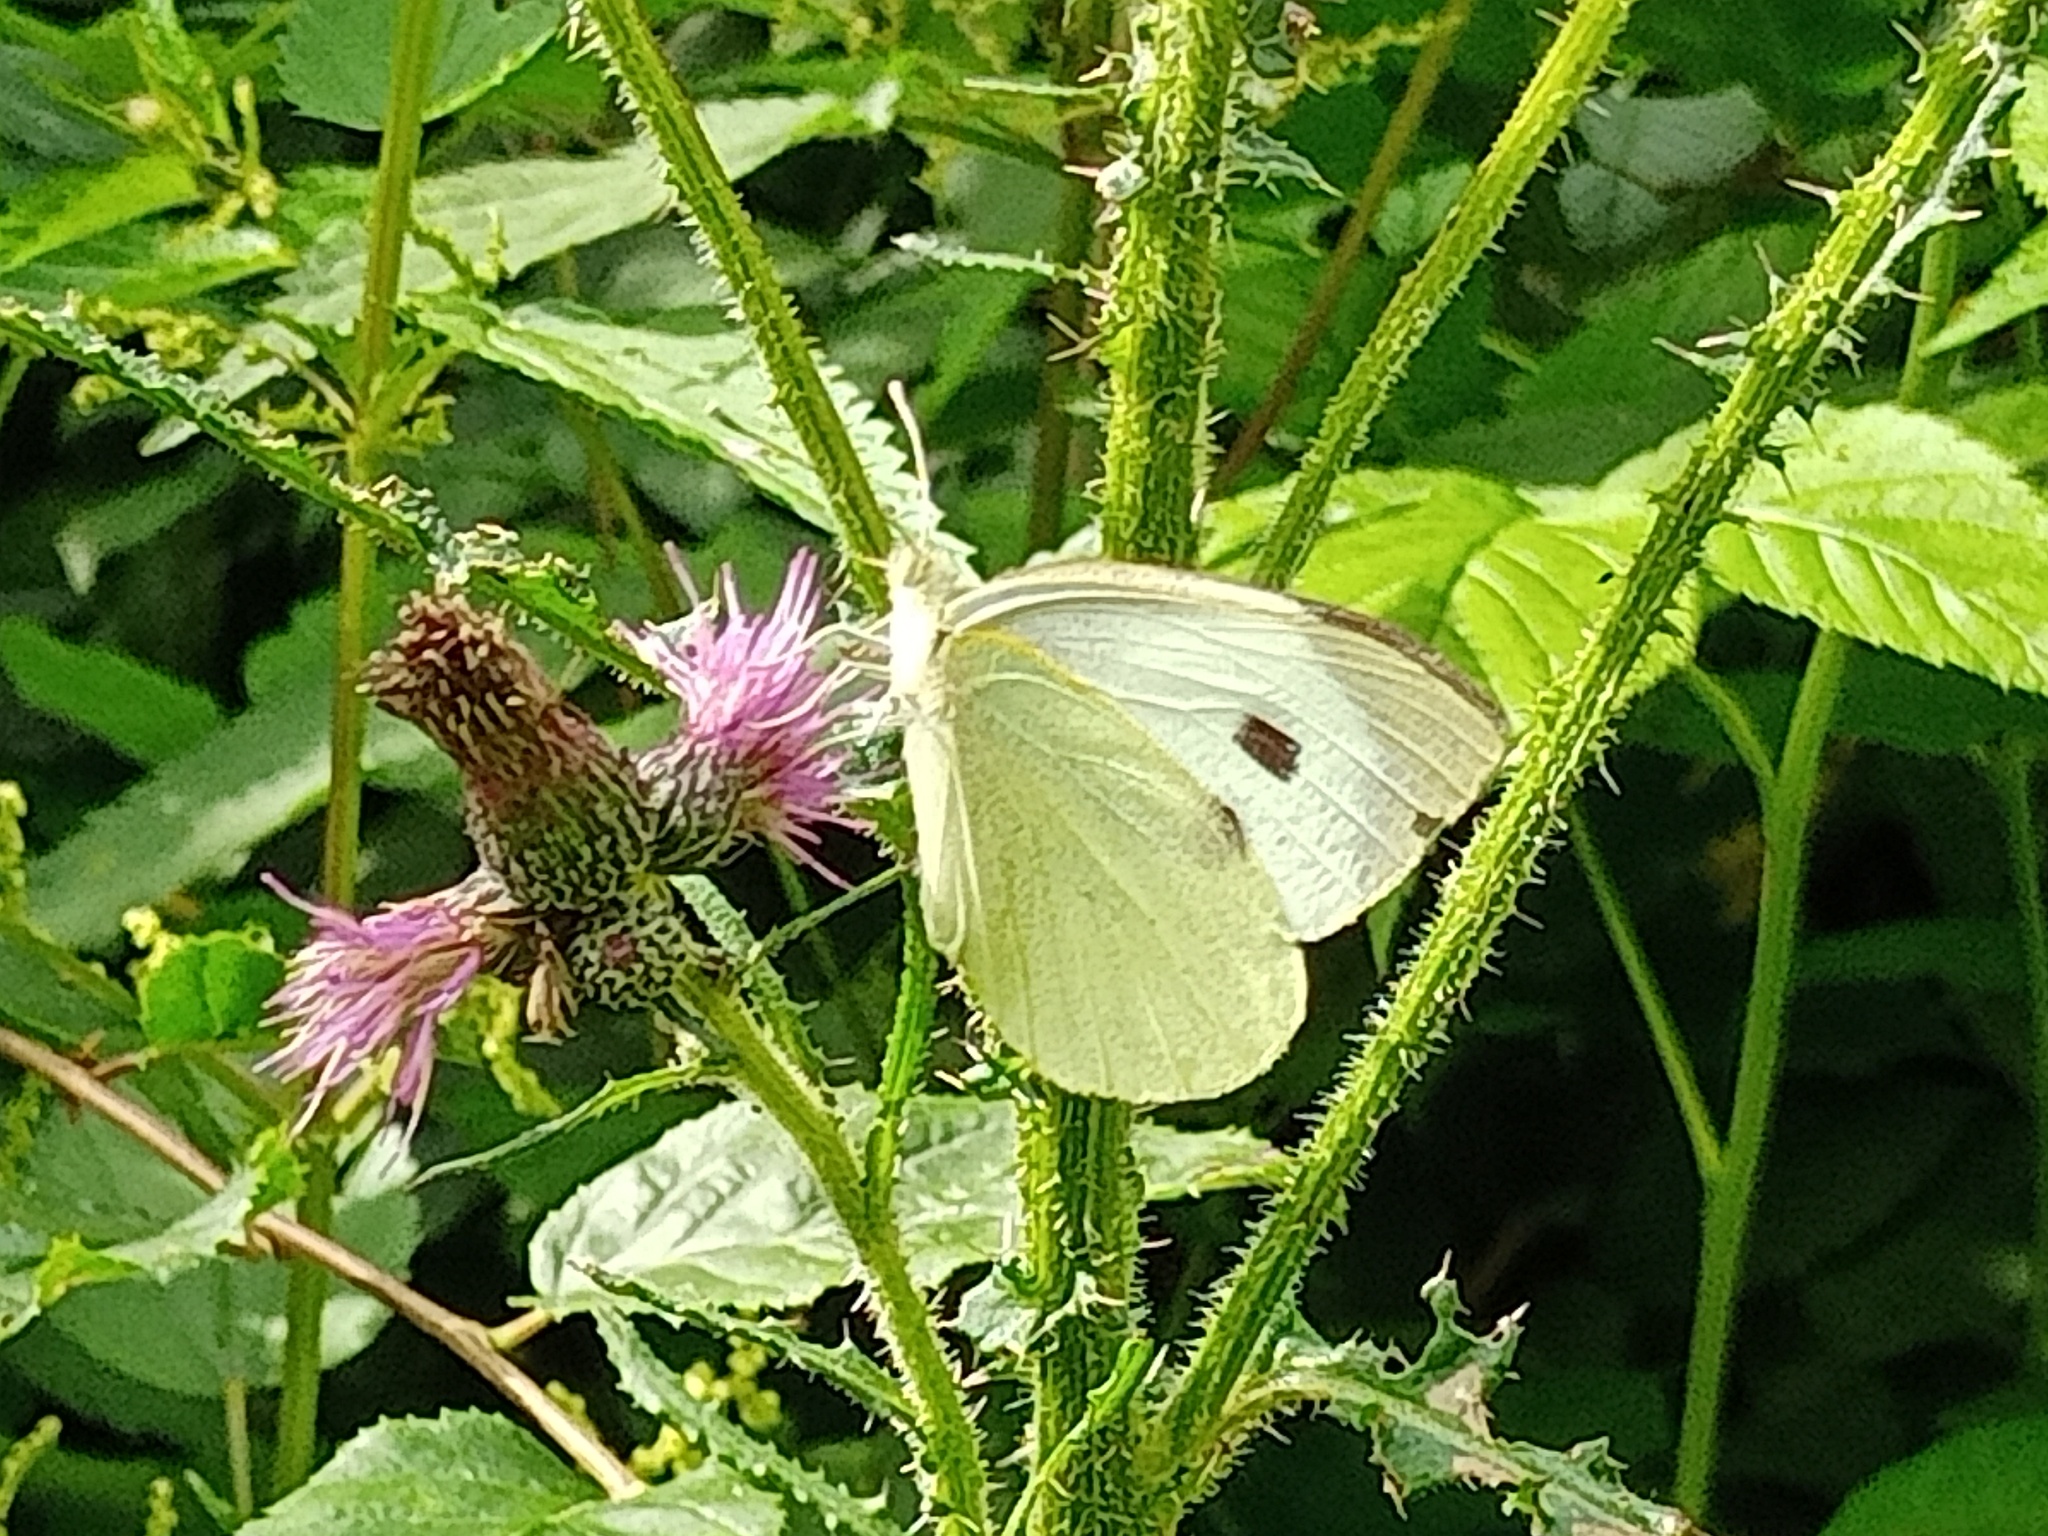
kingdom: Animalia
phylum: Arthropoda
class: Insecta
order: Lepidoptera
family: Pieridae
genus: Pieris
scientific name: Pieris brassicae
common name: Large white
